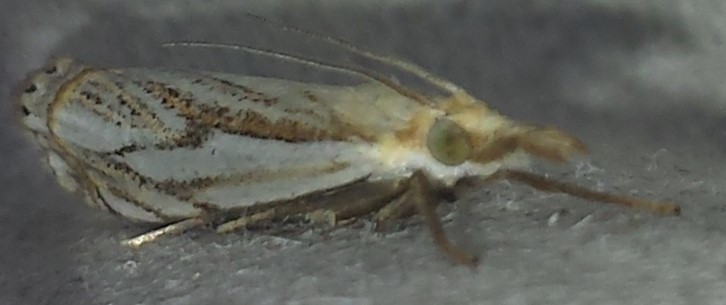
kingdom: Animalia
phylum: Arthropoda
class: Insecta
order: Lepidoptera
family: Crambidae
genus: Crambus
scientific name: Crambus saltuellus
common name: Pasture grass-veneer
